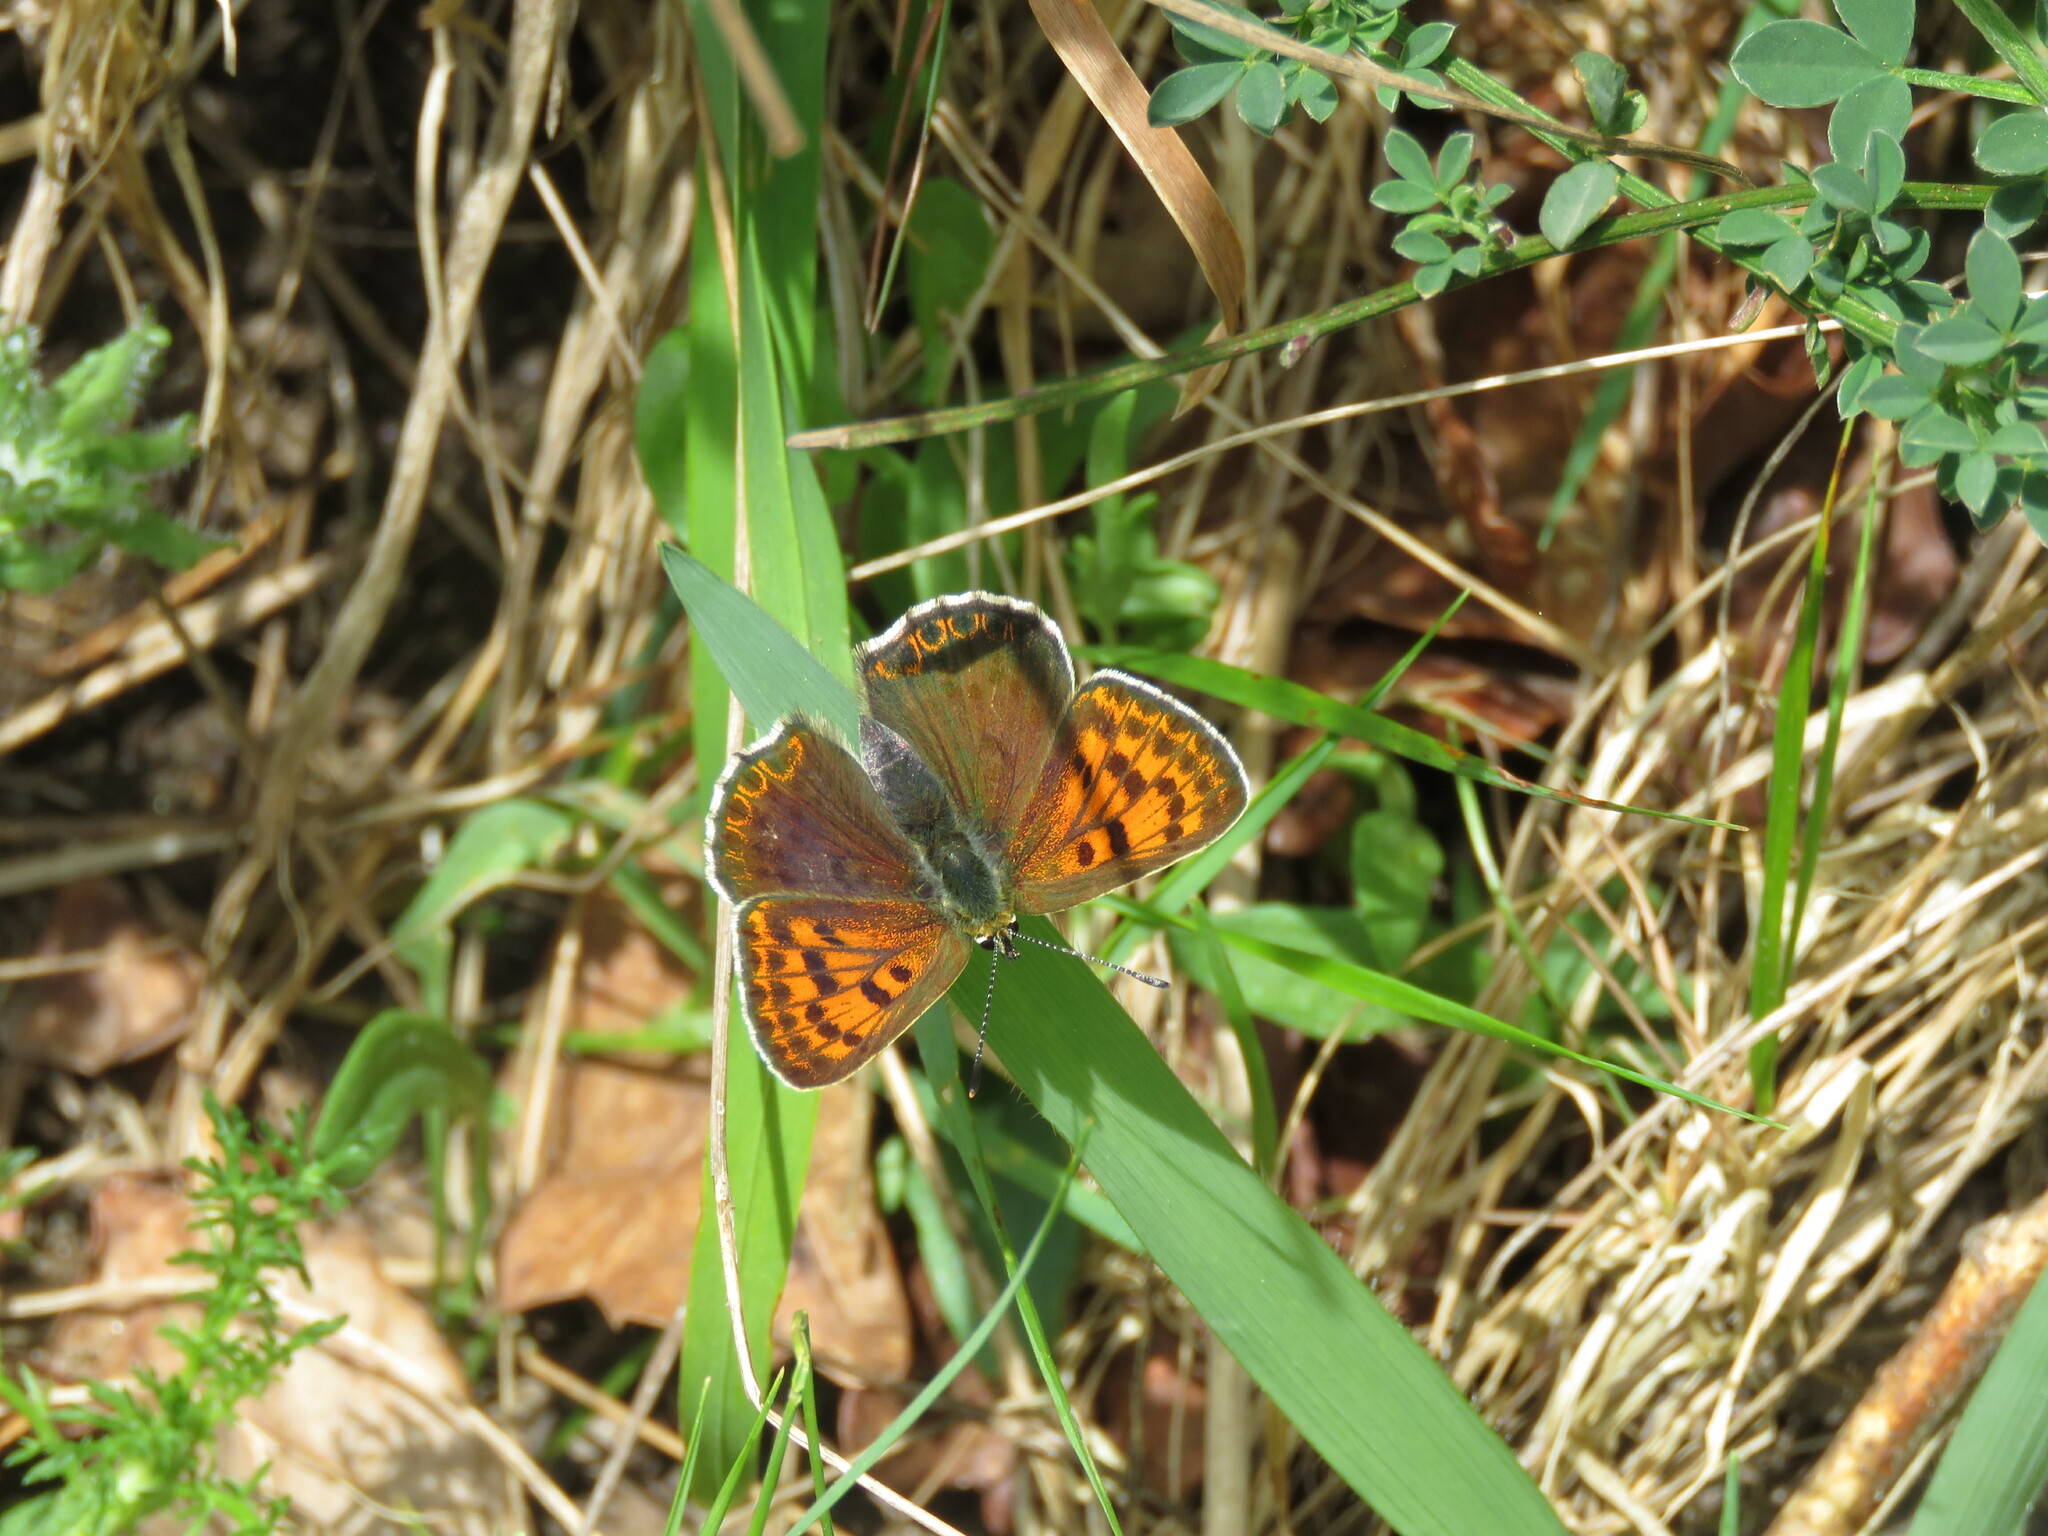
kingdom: Animalia
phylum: Arthropoda
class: Insecta
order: Lepidoptera
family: Lycaenidae
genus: Loweia
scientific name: Loweia tityrus
